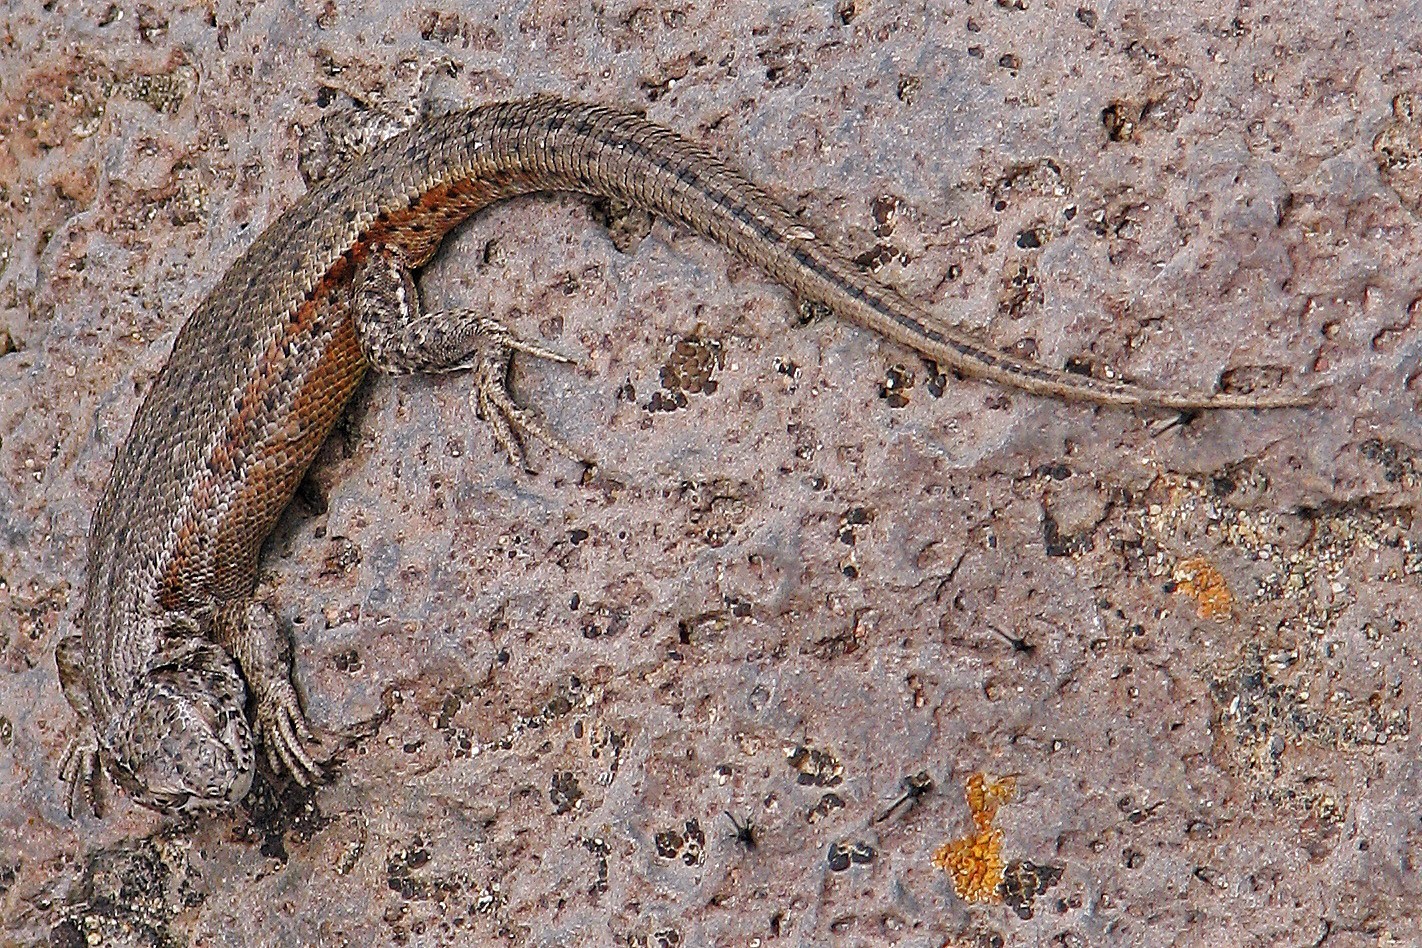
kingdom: Animalia
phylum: Chordata
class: Squamata
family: Liolaemidae
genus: Liolaemus
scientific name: Liolaemus bibronii
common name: Bibron's tree iguana
